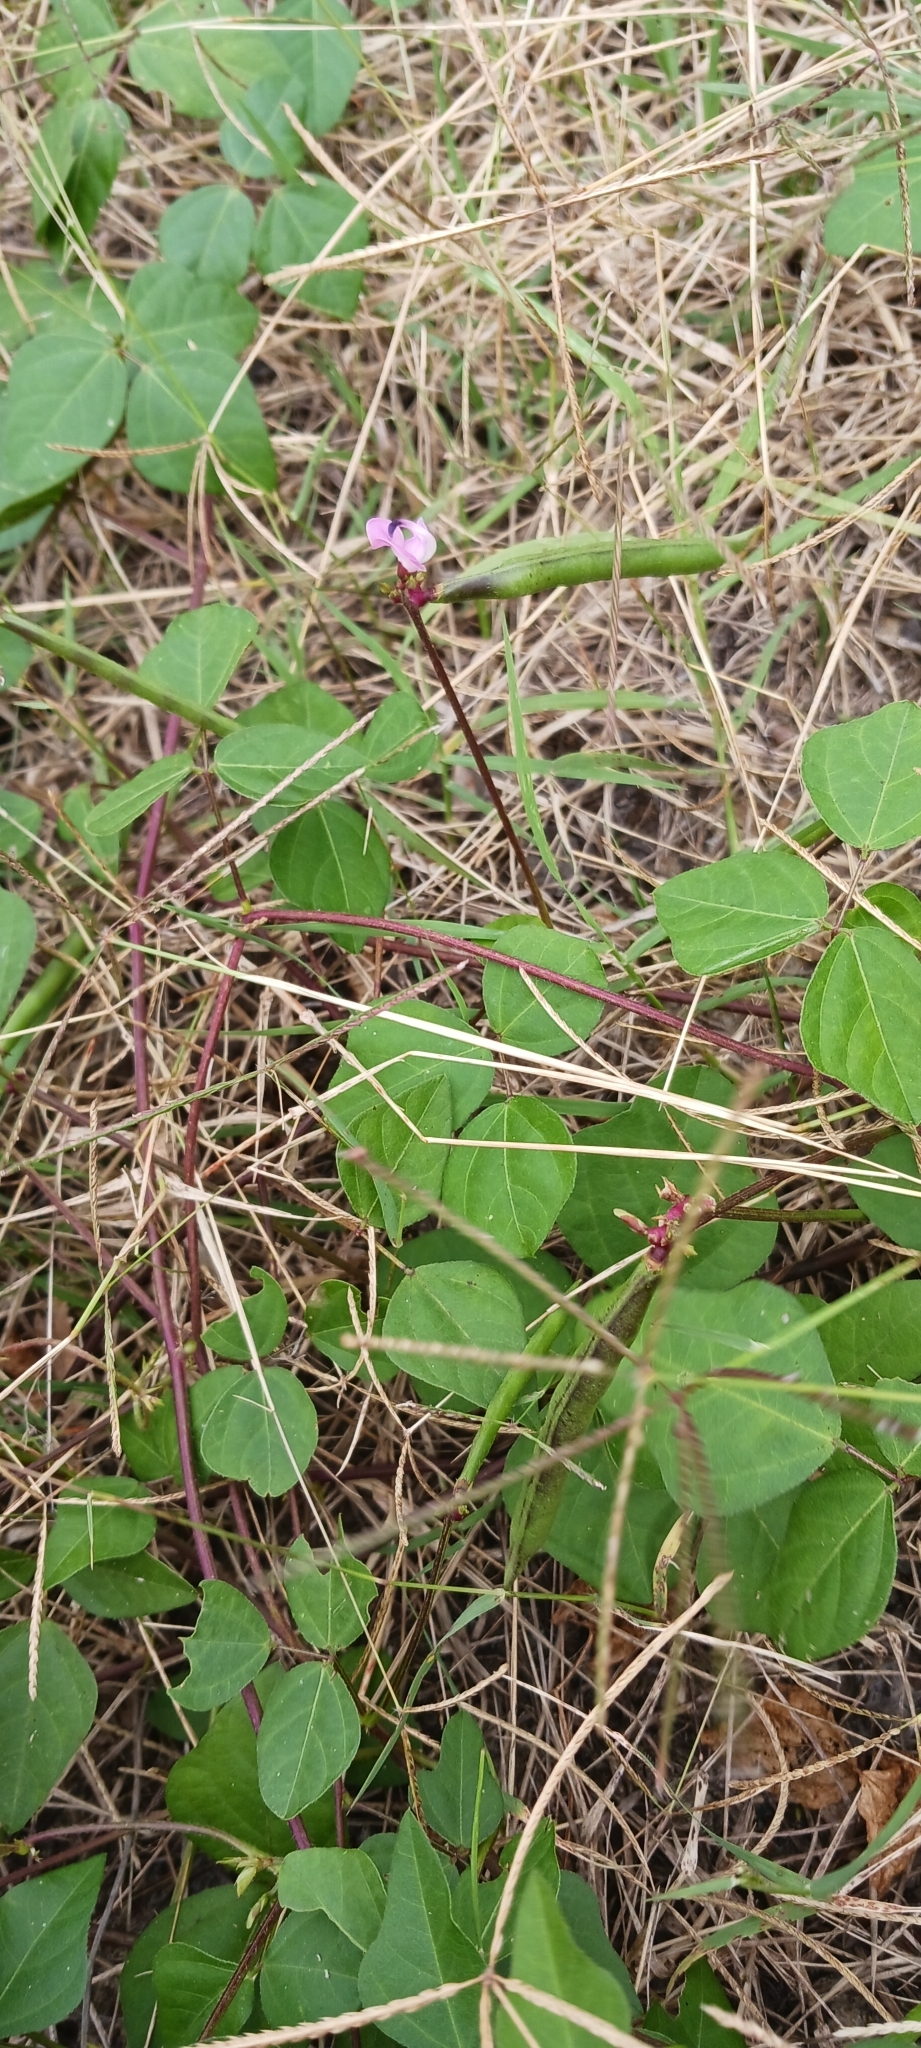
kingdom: Plantae
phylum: Tracheophyta
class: Magnoliopsida
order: Fabales
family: Fabaceae
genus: Strophostyles
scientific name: Strophostyles helvola
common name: Trailing wild bean
